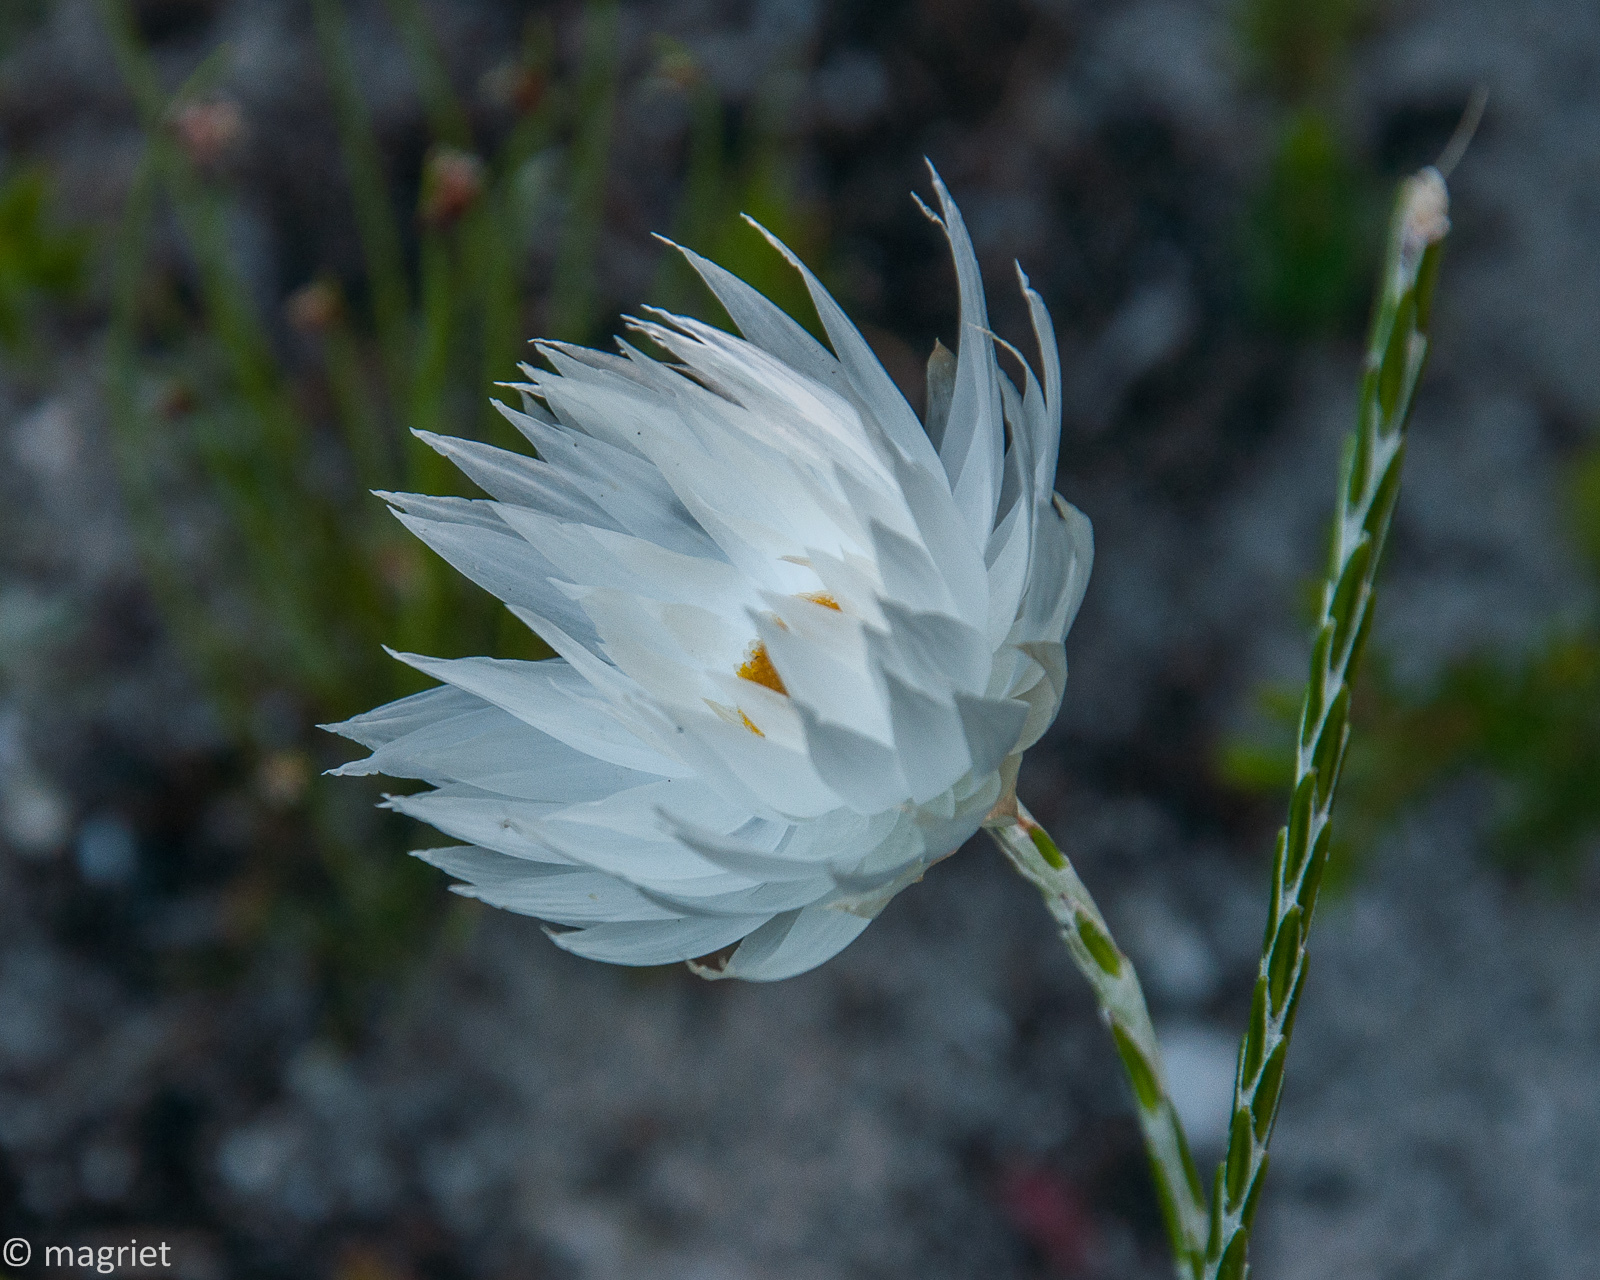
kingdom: Plantae
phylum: Tracheophyta
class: Magnoliopsida
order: Asterales
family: Asteraceae
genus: Edmondia
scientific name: Edmondia sesamoides
